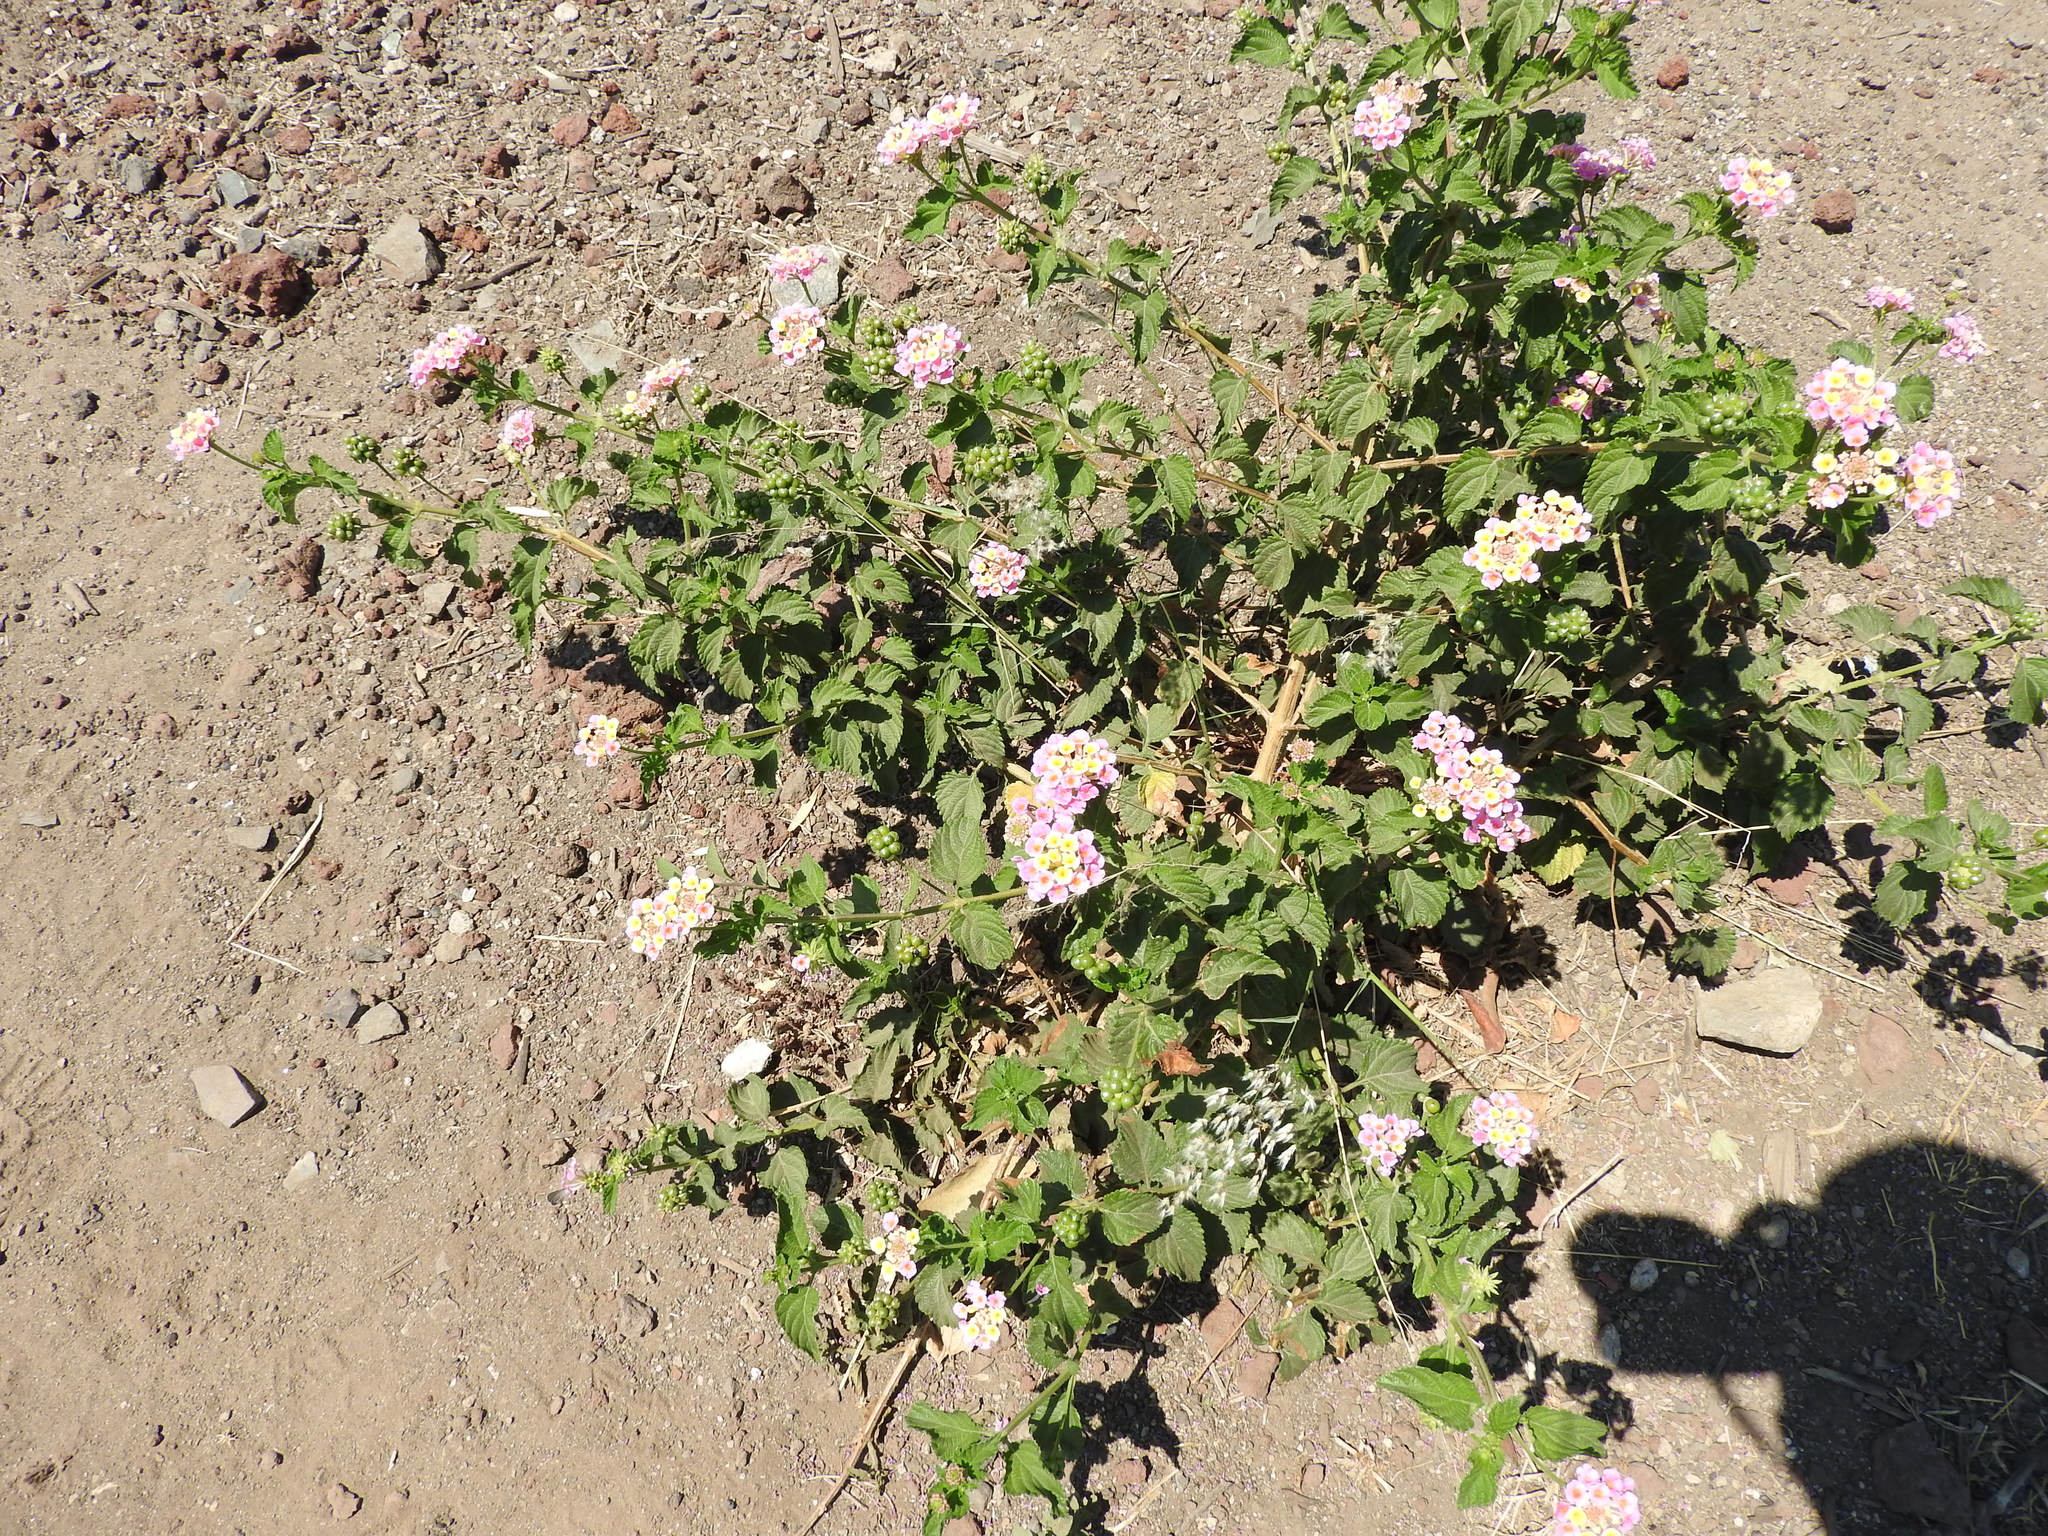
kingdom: Plantae
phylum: Tracheophyta
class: Magnoliopsida
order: Lamiales
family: Verbenaceae
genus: Lantana
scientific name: Lantana camara
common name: Lantana
